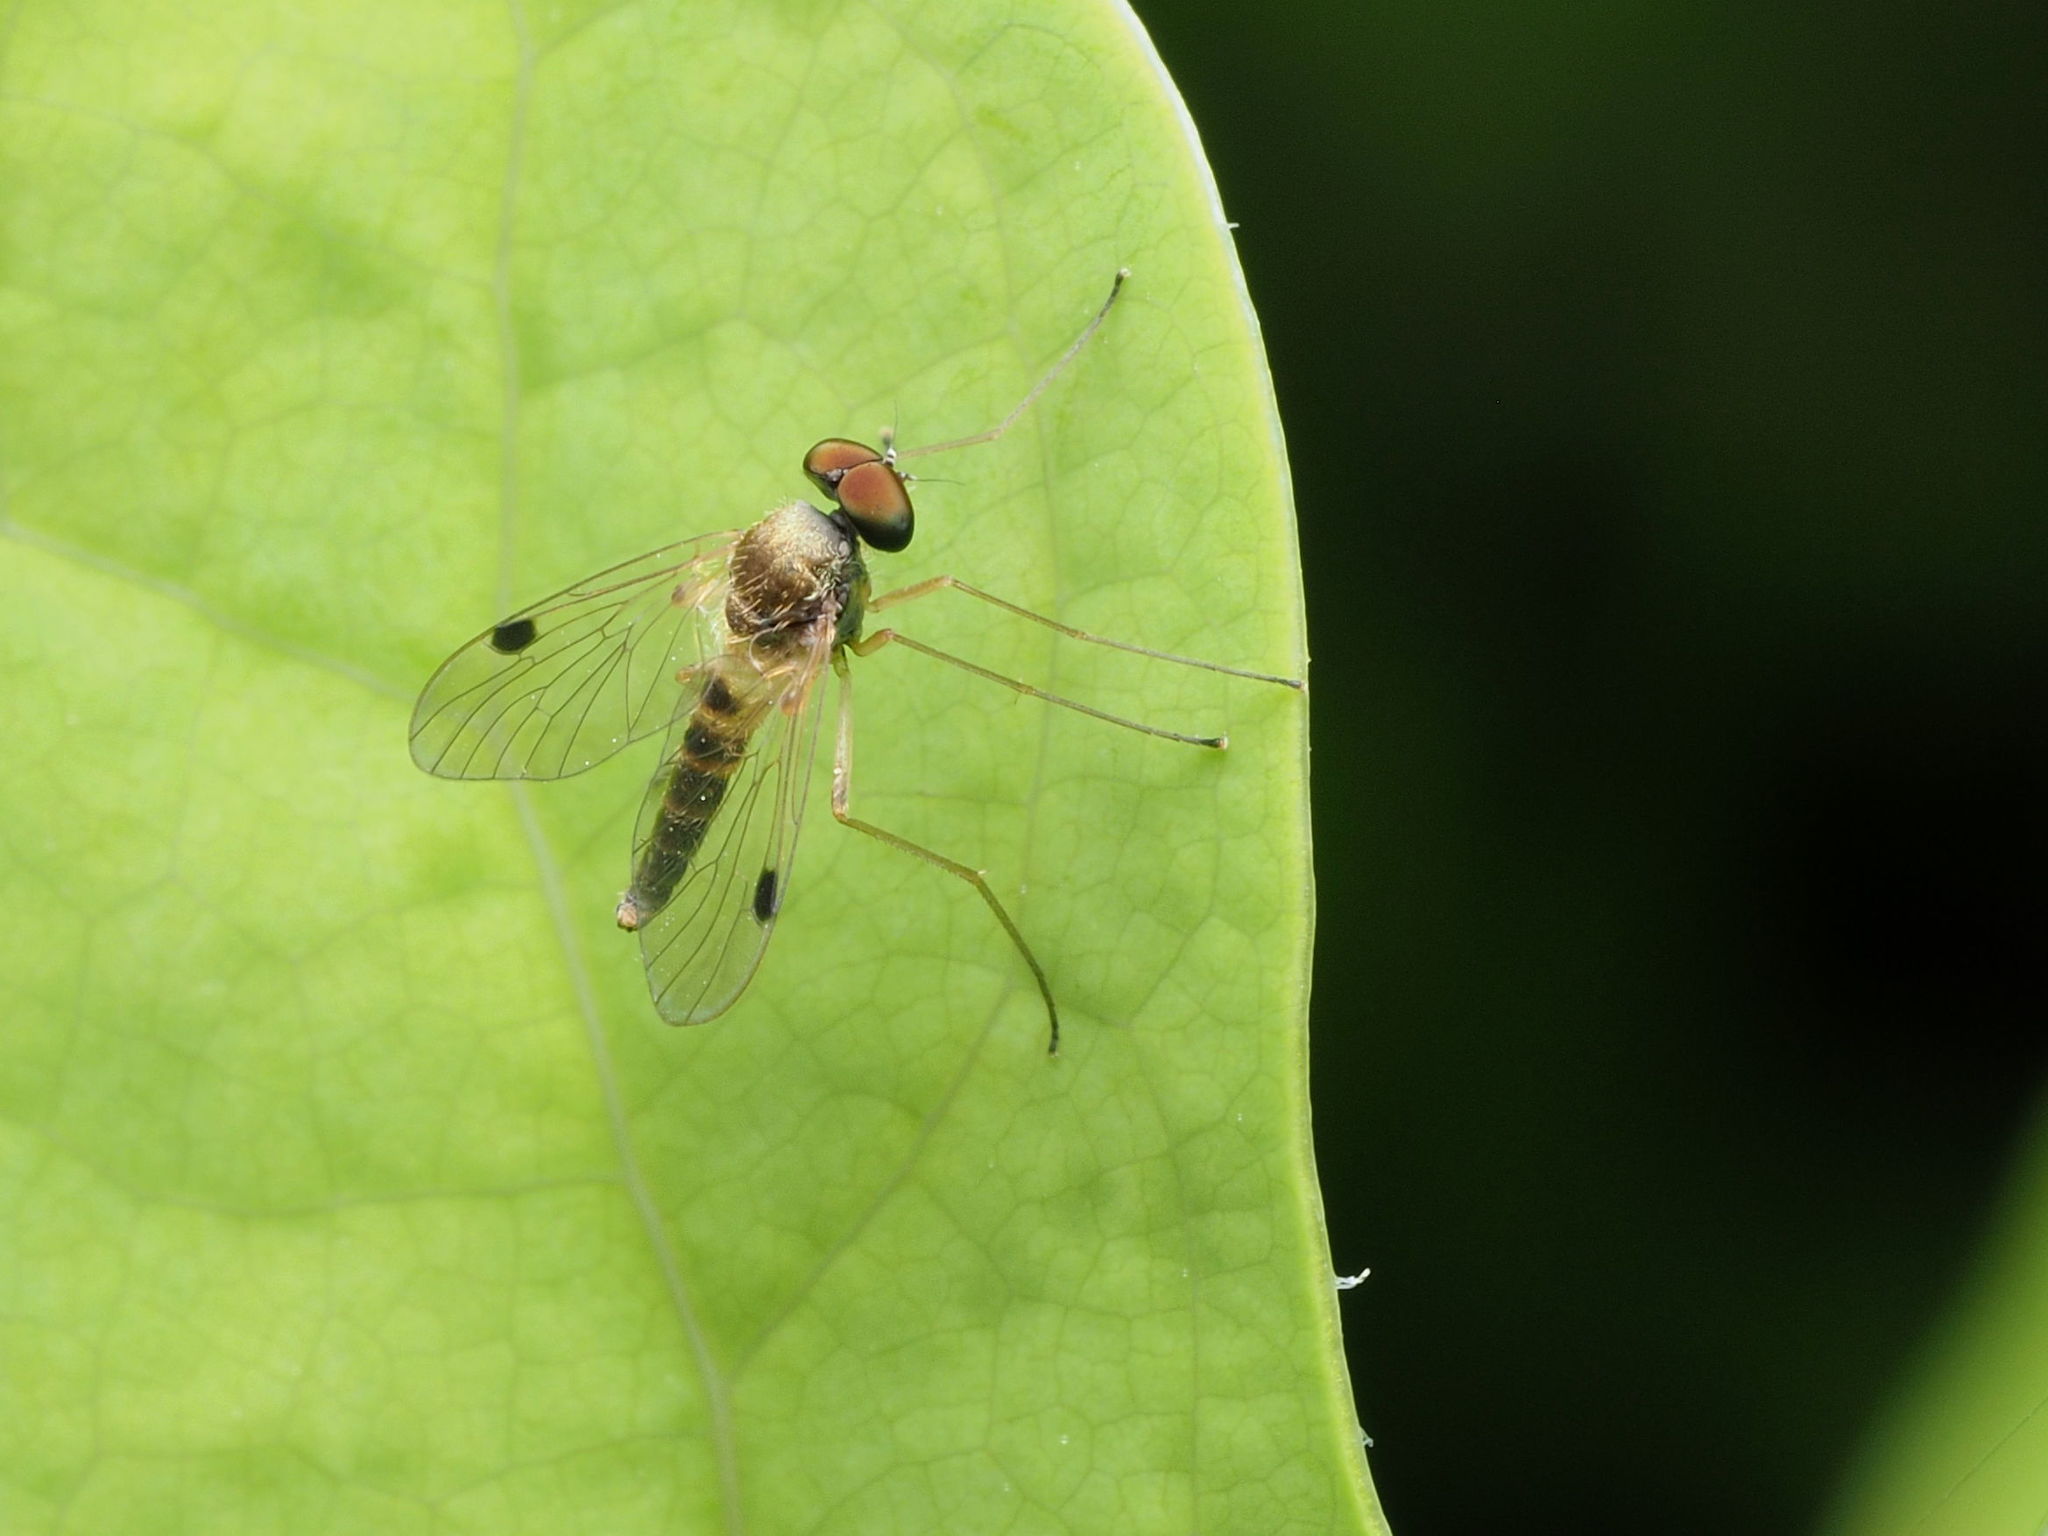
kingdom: Animalia
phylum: Arthropoda
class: Insecta
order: Diptera
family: Rhagionidae
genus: Chrysopilus
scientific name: Chrysopilus modestus
